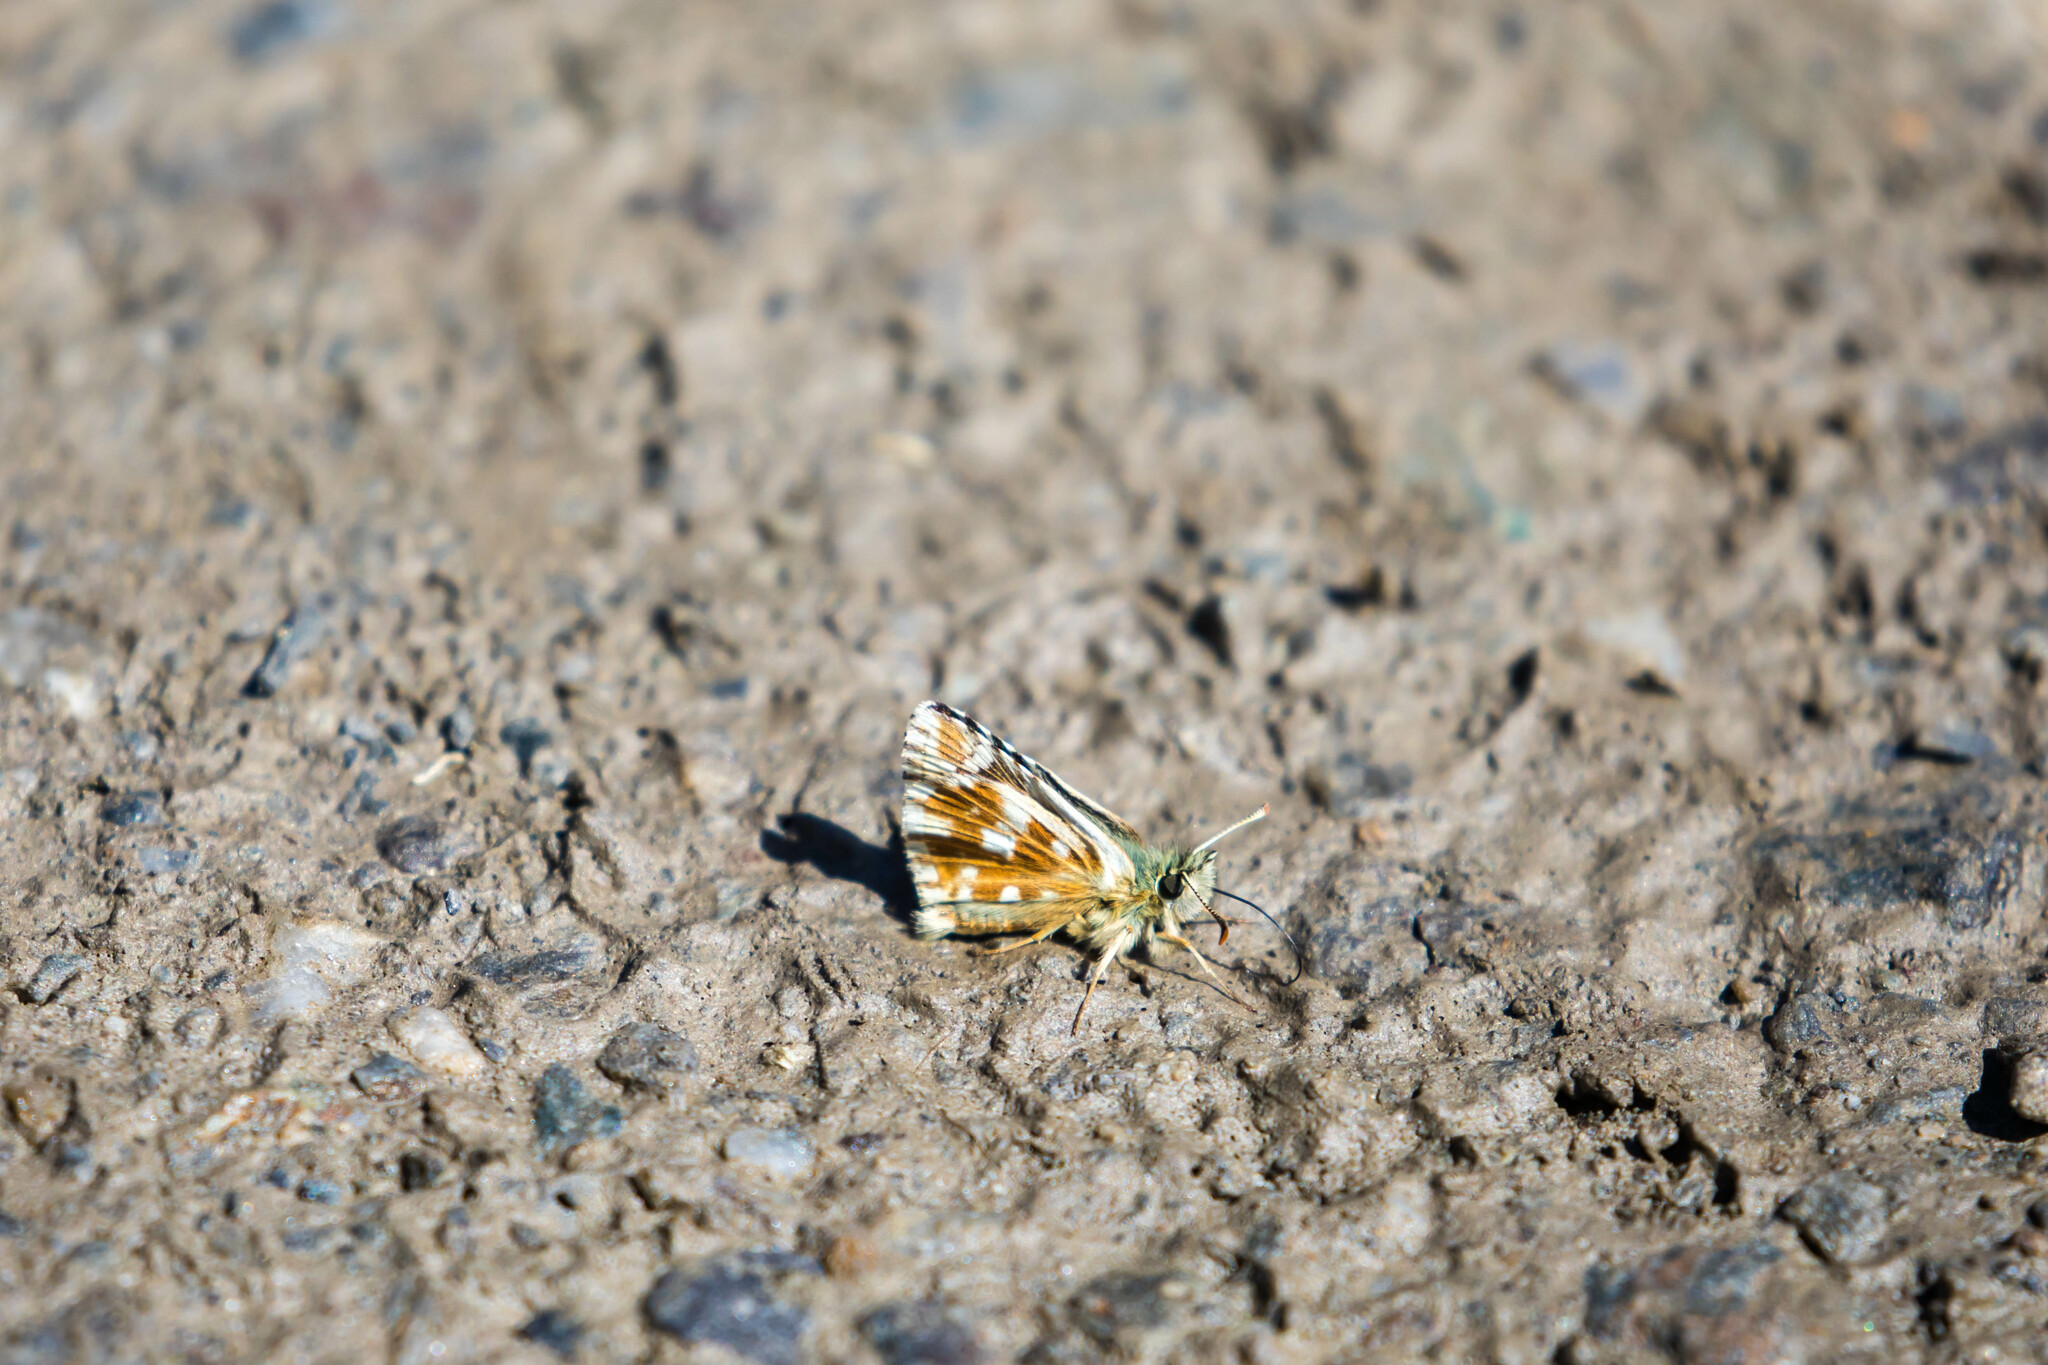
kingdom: Animalia
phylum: Arthropoda
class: Insecta
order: Lepidoptera
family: Hesperiidae
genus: Pyrgus
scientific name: Pyrgus carlinae
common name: Carline skipper
